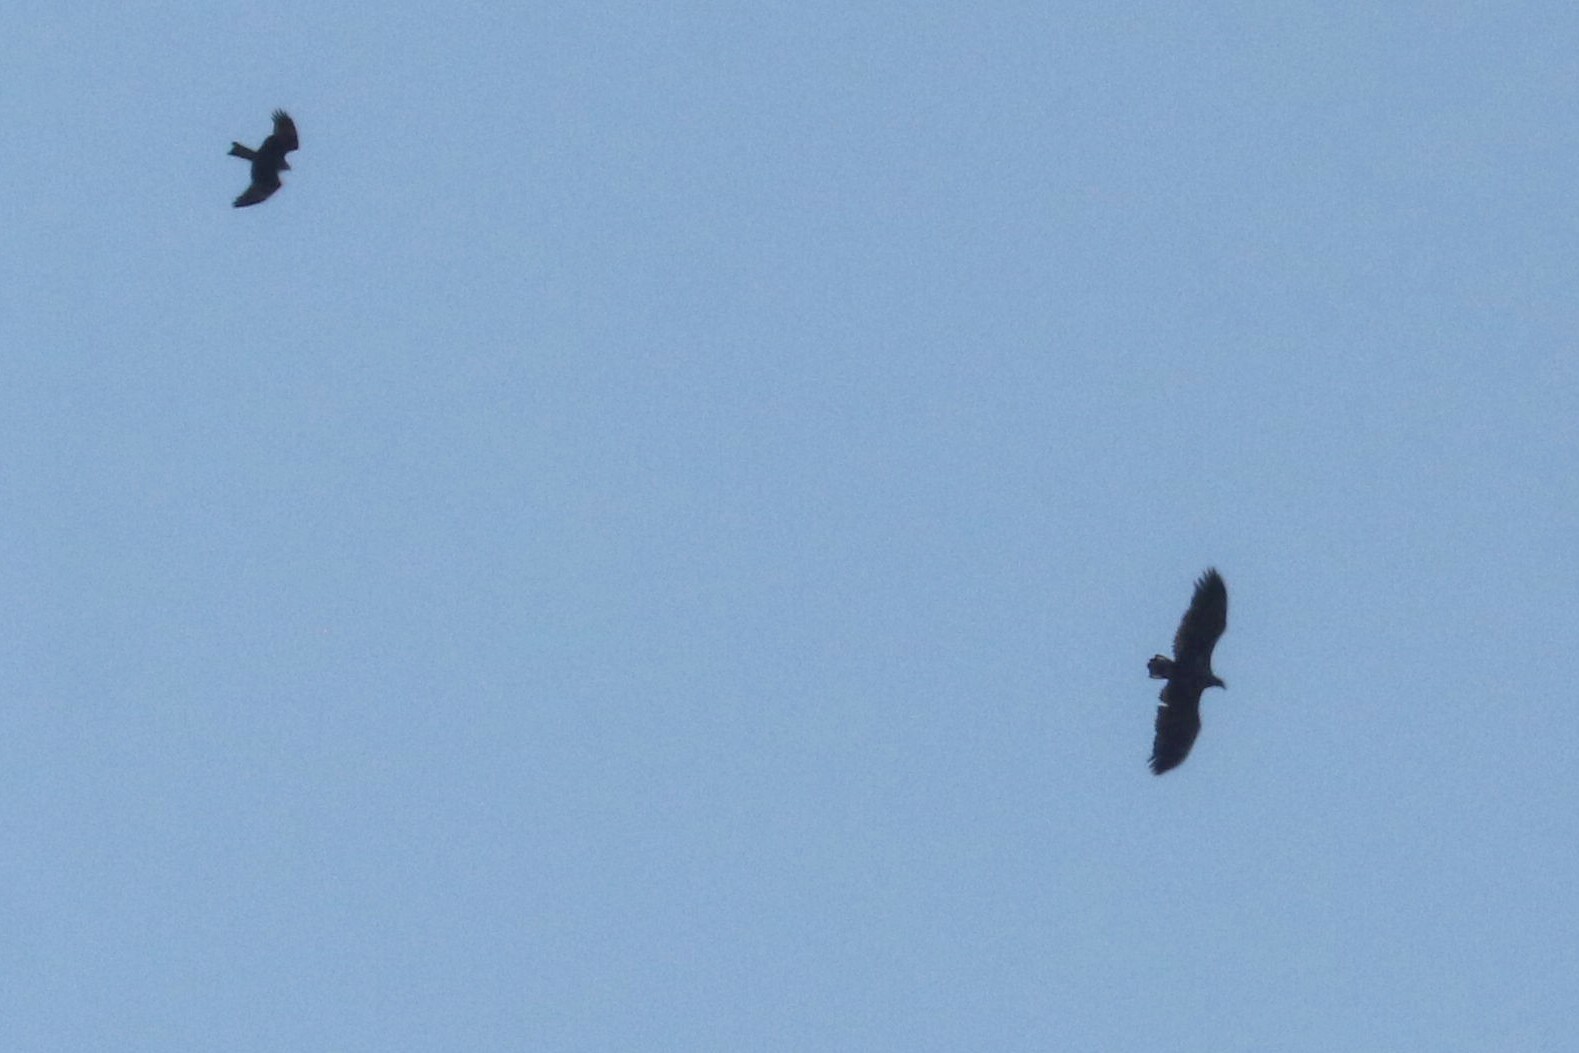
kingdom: Animalia
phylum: Chordata
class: Aves
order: Accipitriformes
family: Accipitridae
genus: Haliaeetus
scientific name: Haliaeetus albicilla
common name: White-tailed eagle
